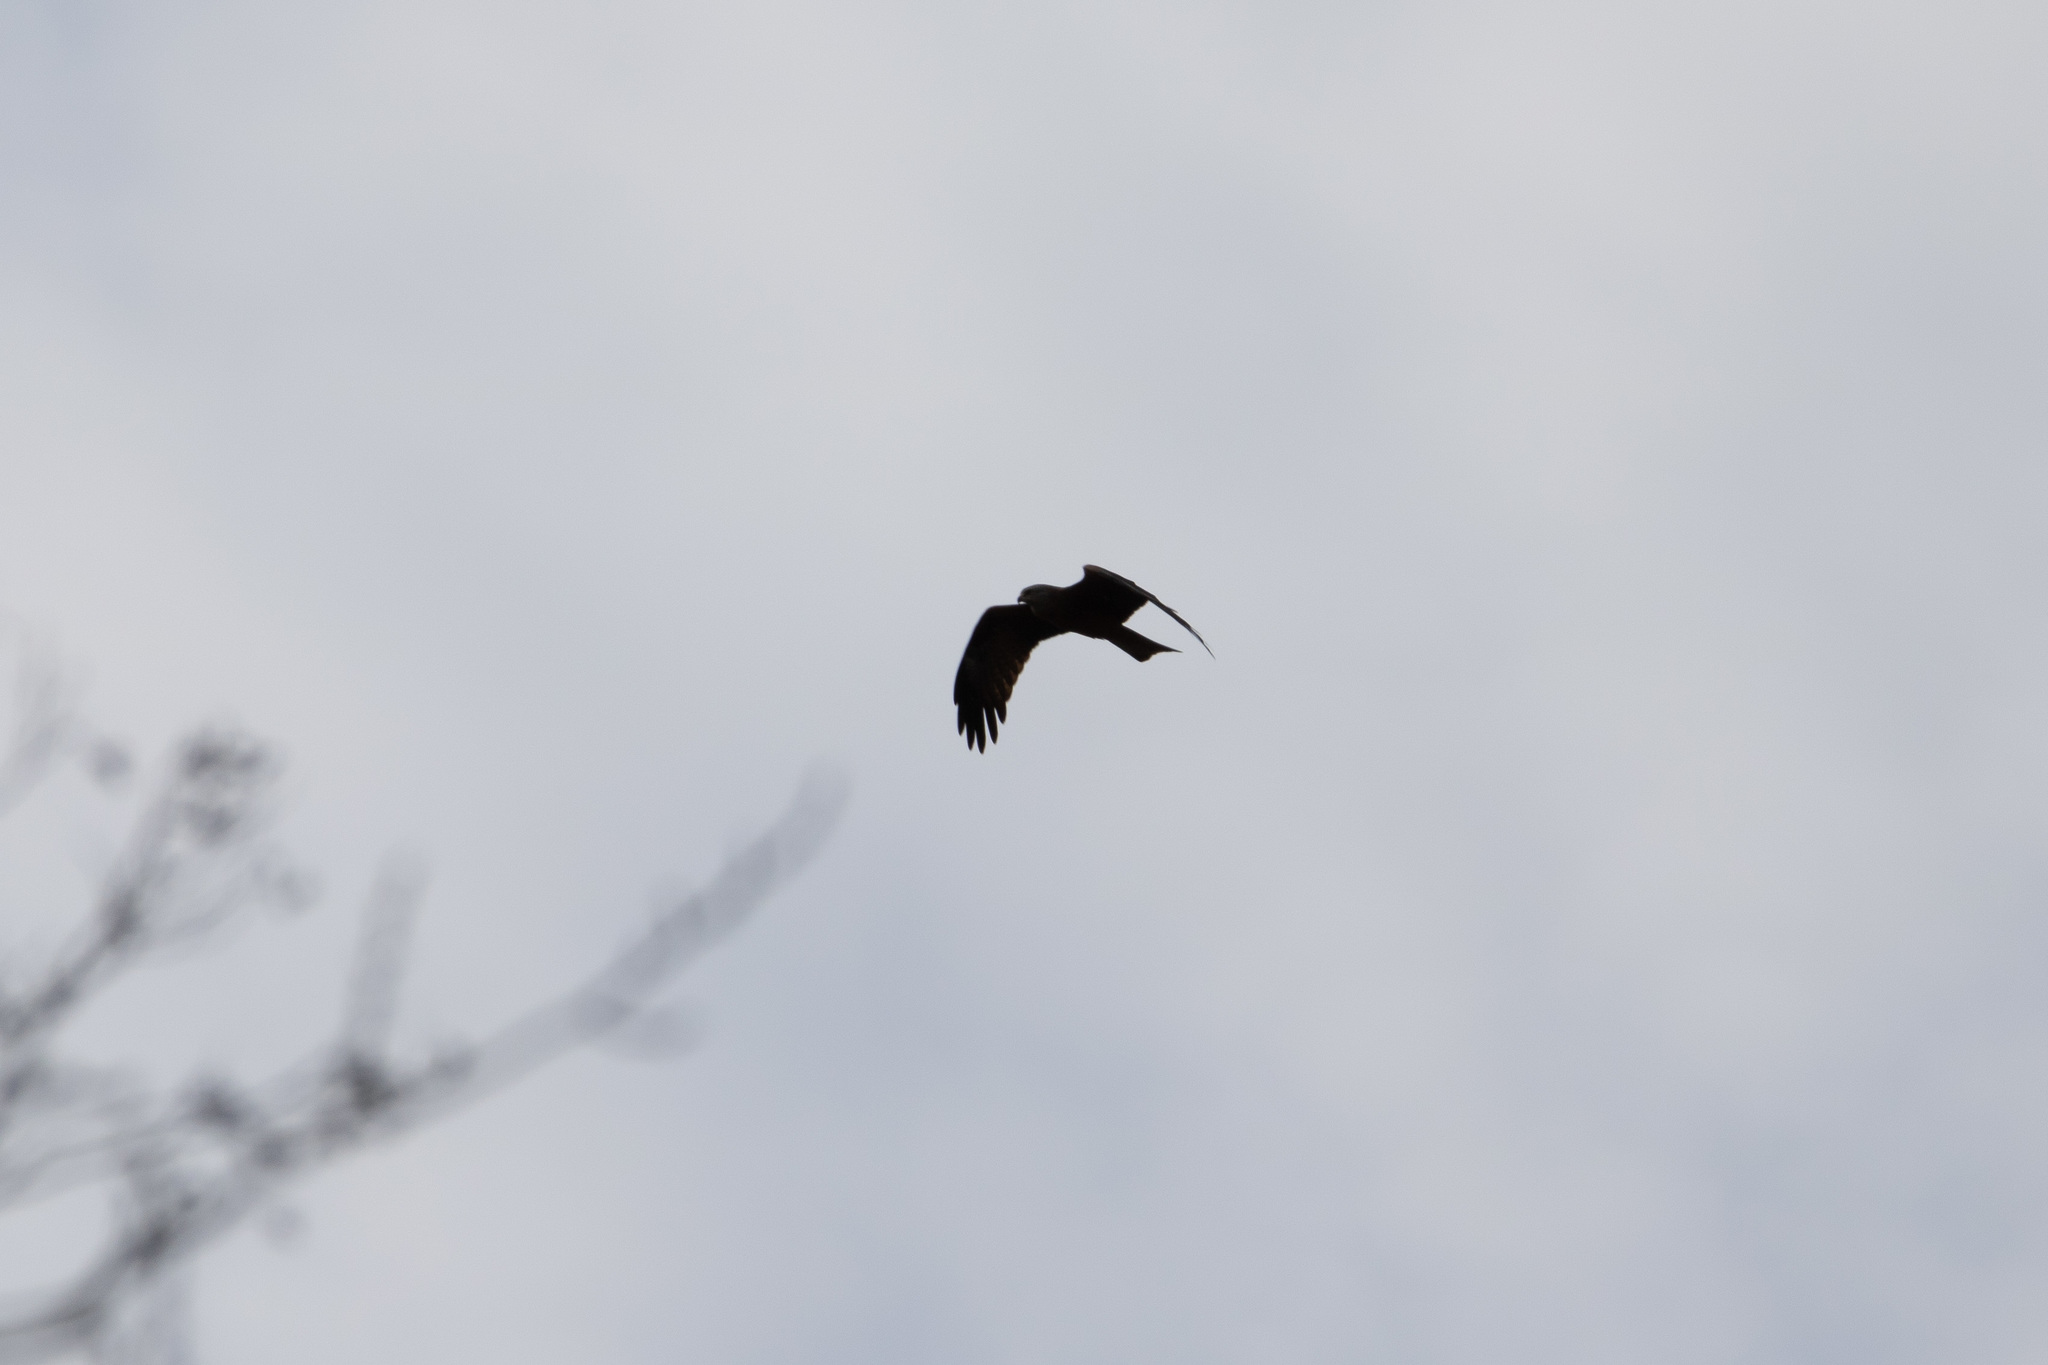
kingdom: Animalia
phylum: Chordata
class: Aves
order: Accipitriformes
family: Accipitridae
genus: Milvus
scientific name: Milvus migrans
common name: Black kite
